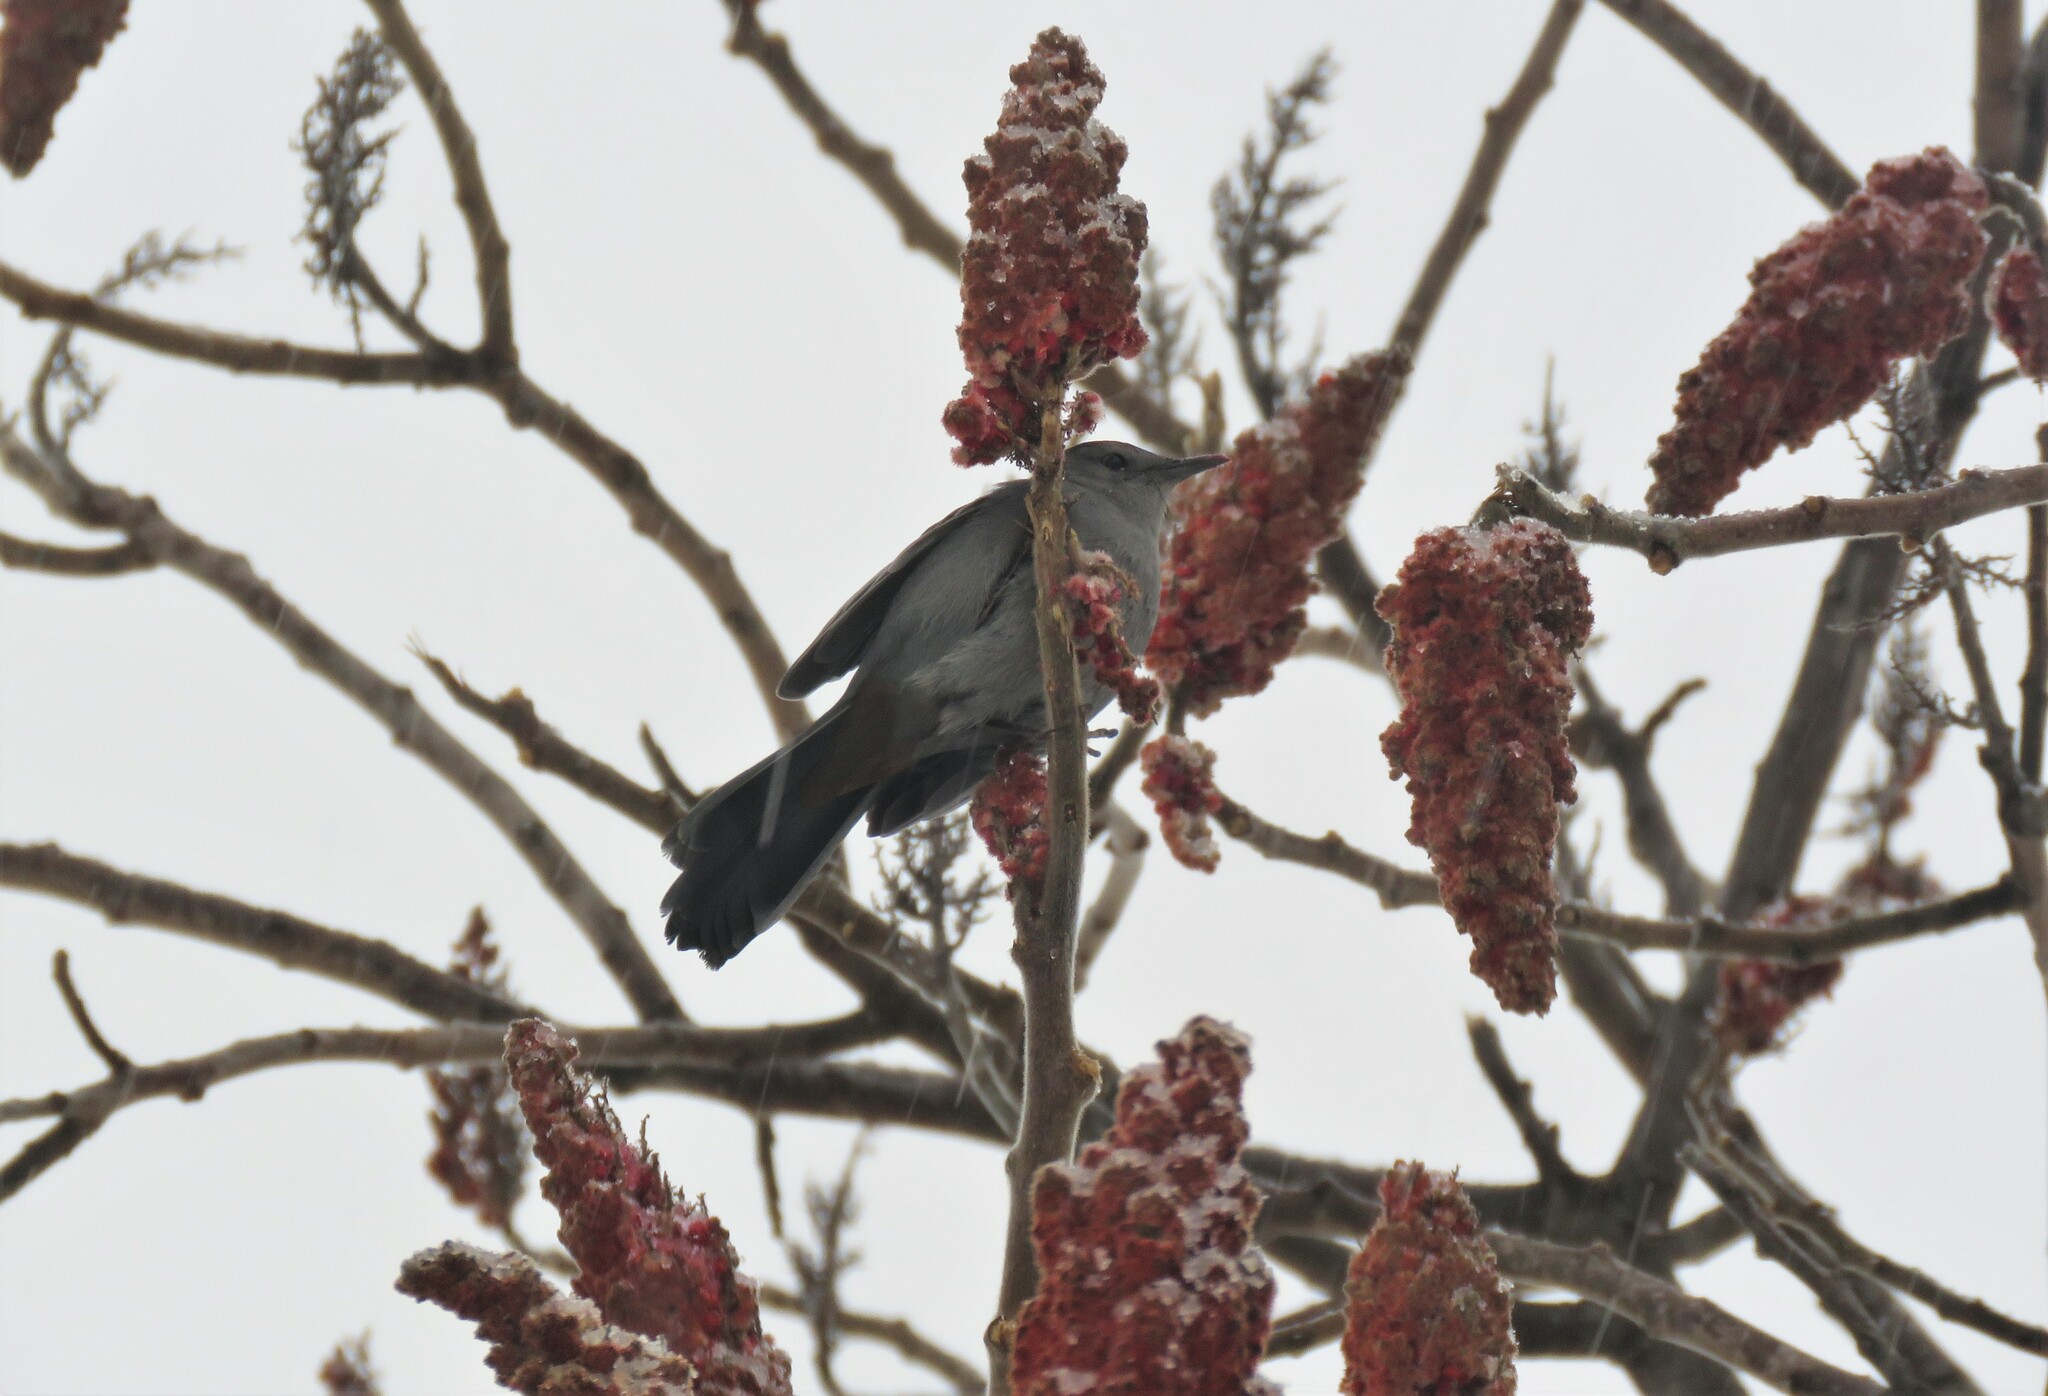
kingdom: Animalia
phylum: Chordata
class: Aves
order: Passeriformes
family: Mimidae
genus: Dumetella
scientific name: Dumetella carolinensis
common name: Gray catbird
